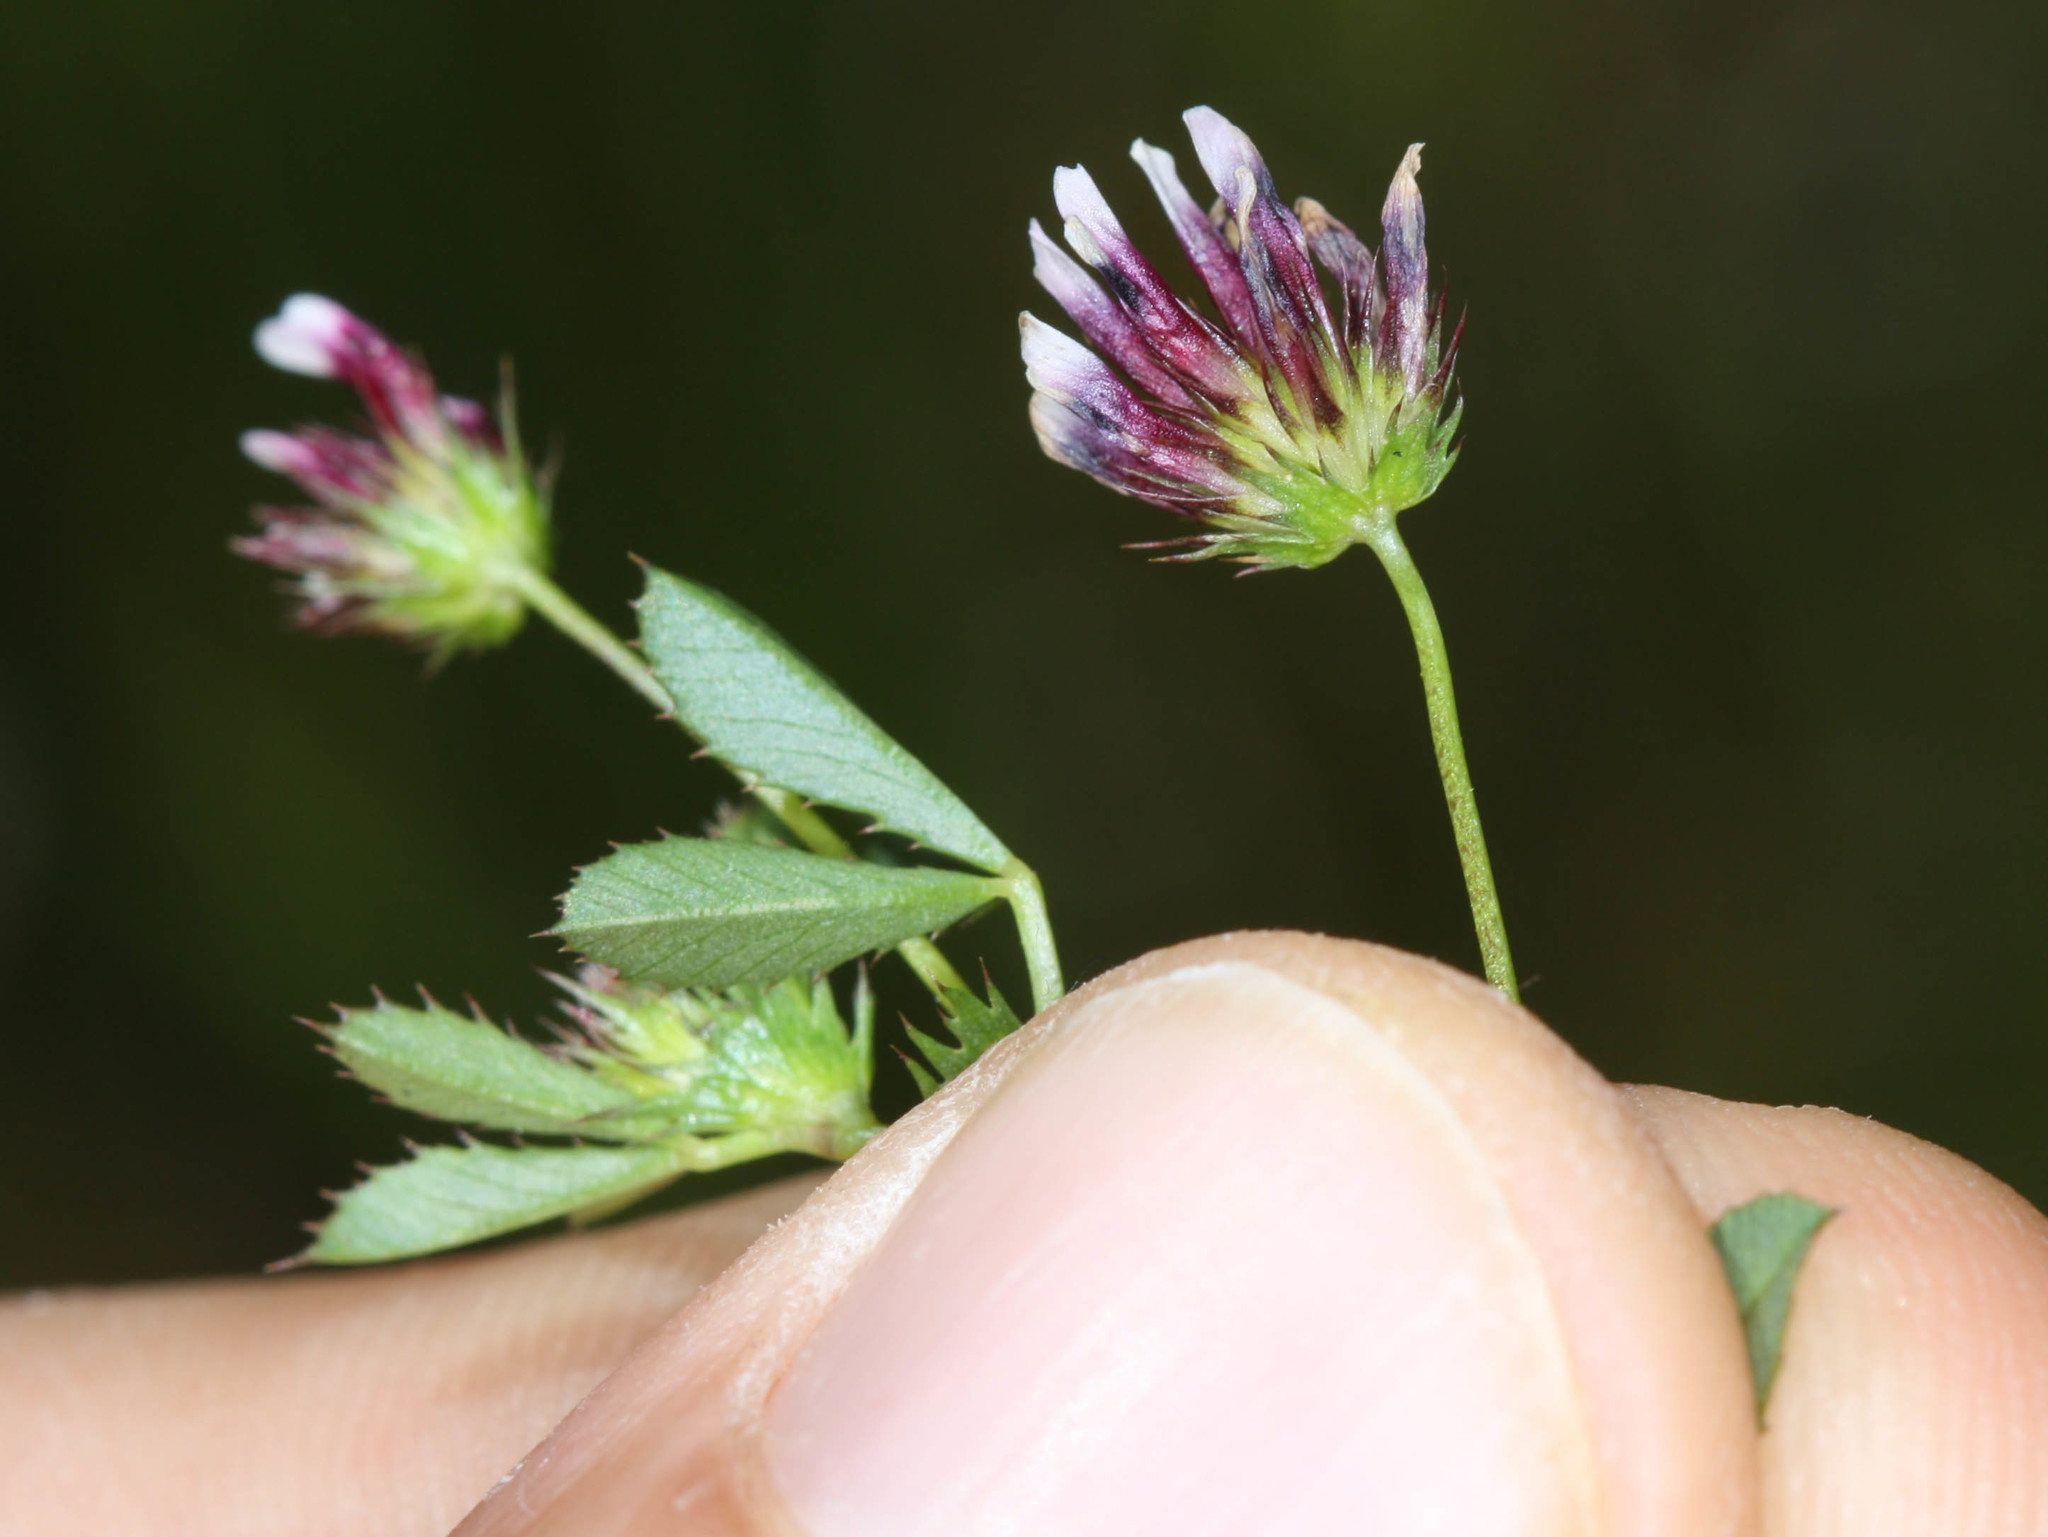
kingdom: Plantae
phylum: Tracheophyta
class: Magnoliopsida
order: Fabales
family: Fabaceae
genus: Trifolium
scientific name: Trifolium variegatum
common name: Whitetip clover
